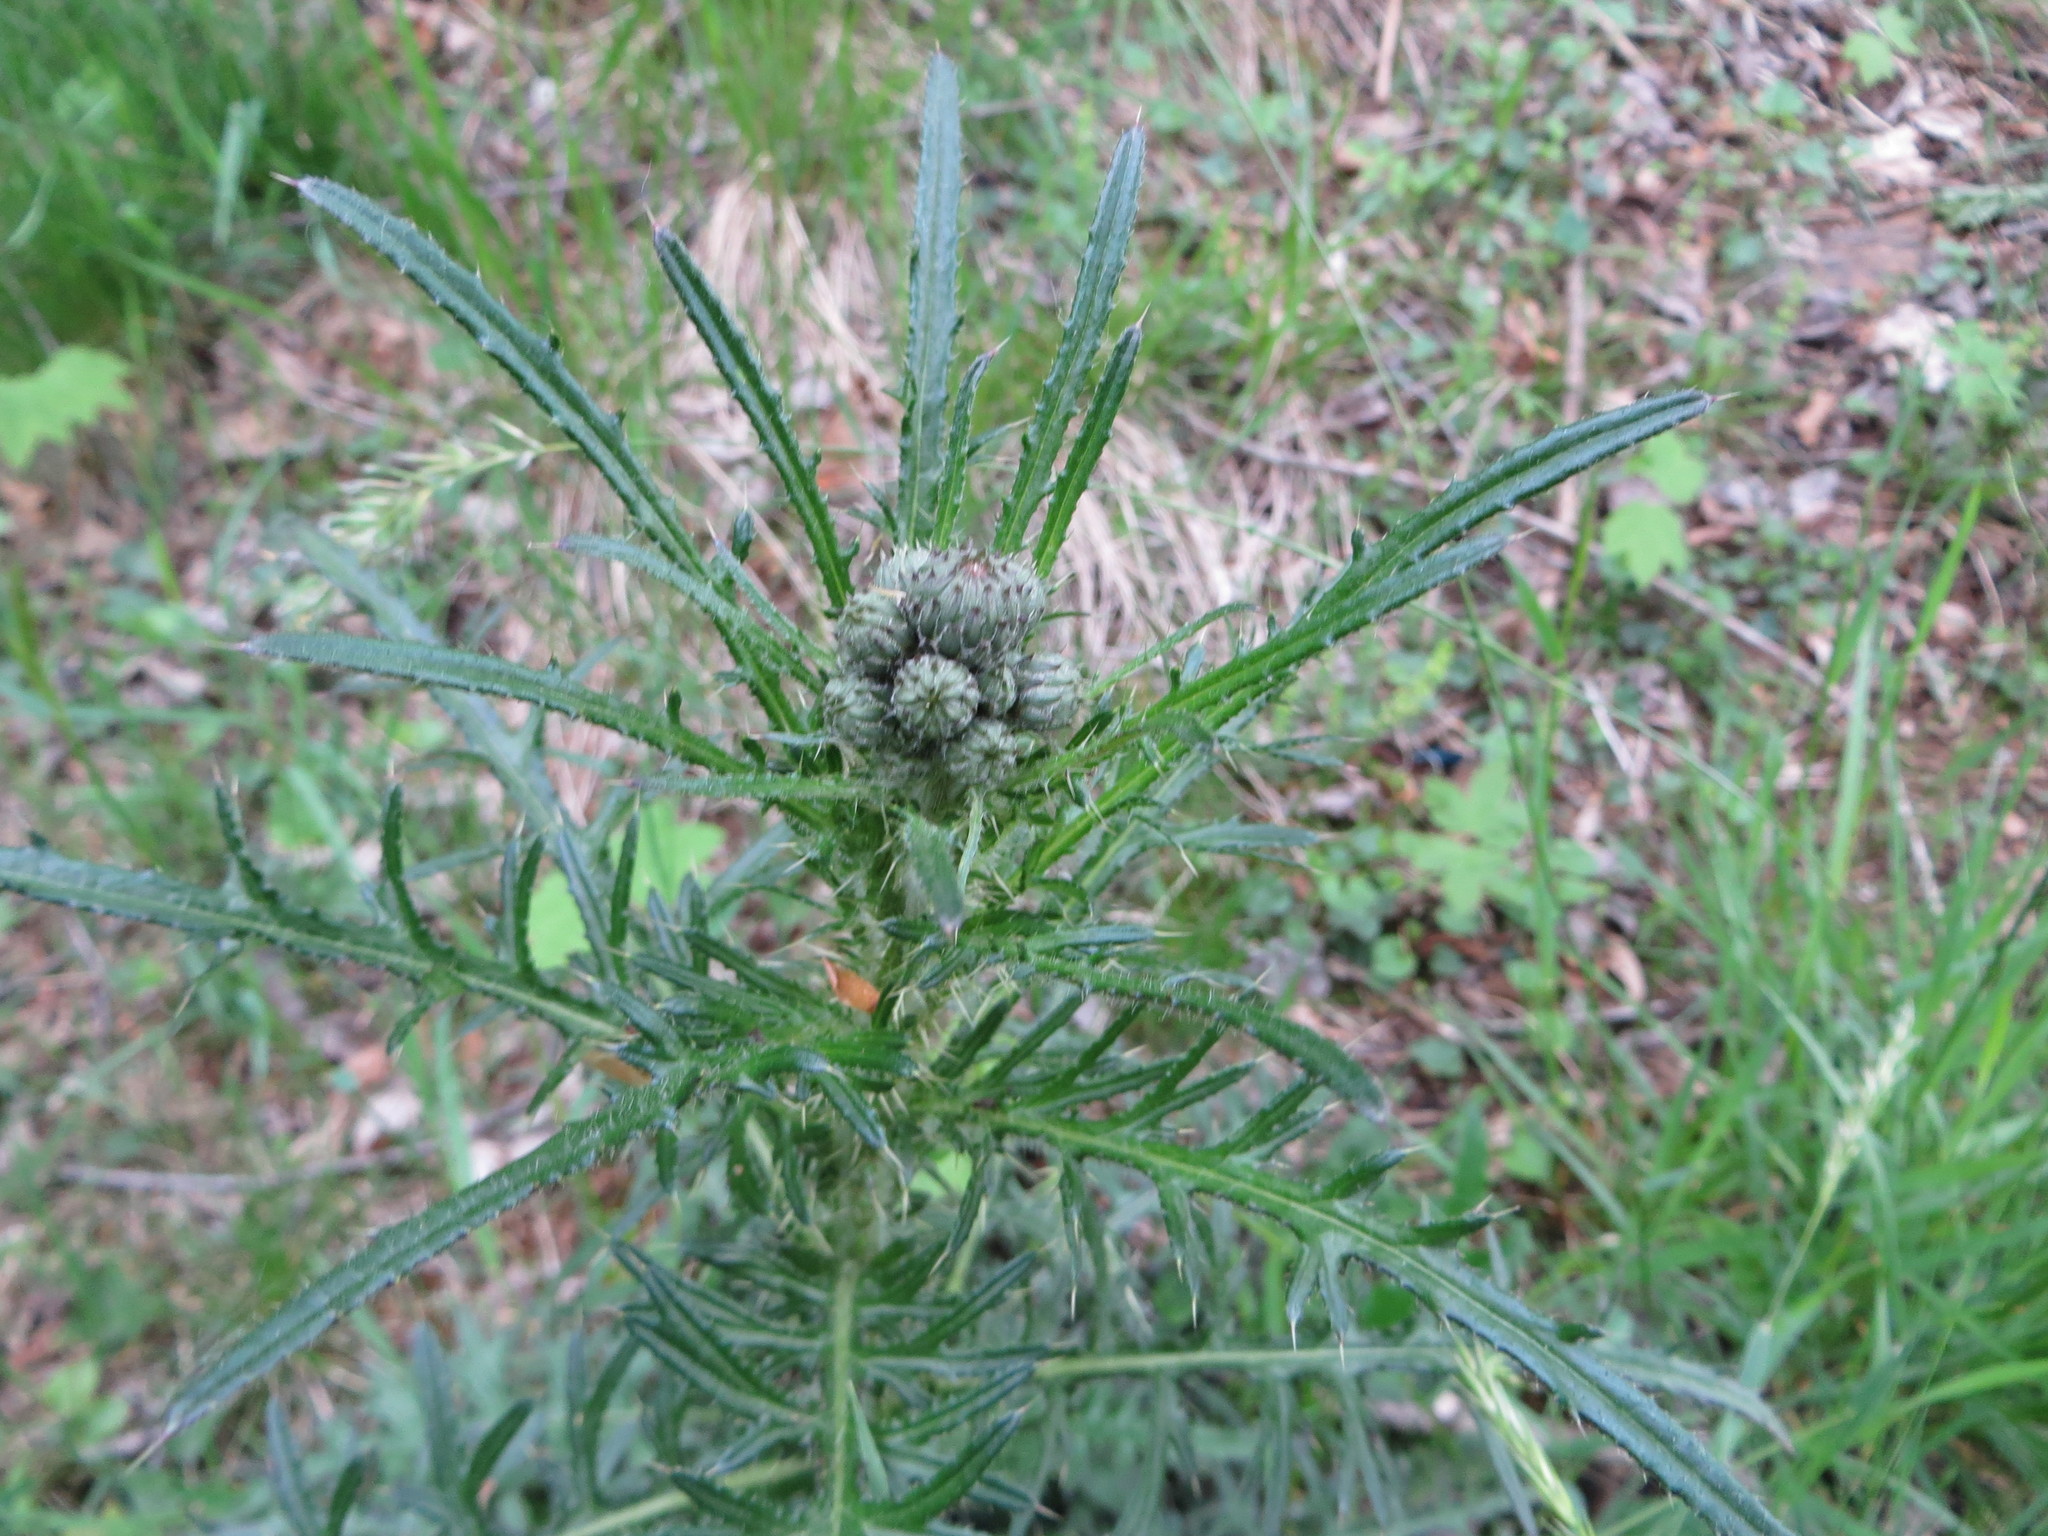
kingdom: Plantae
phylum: Tracheophyta
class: Magnoliopsida
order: Asterales
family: Asteraceae
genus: Cirsium
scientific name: Cirsium palustre
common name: Marsh thistle
